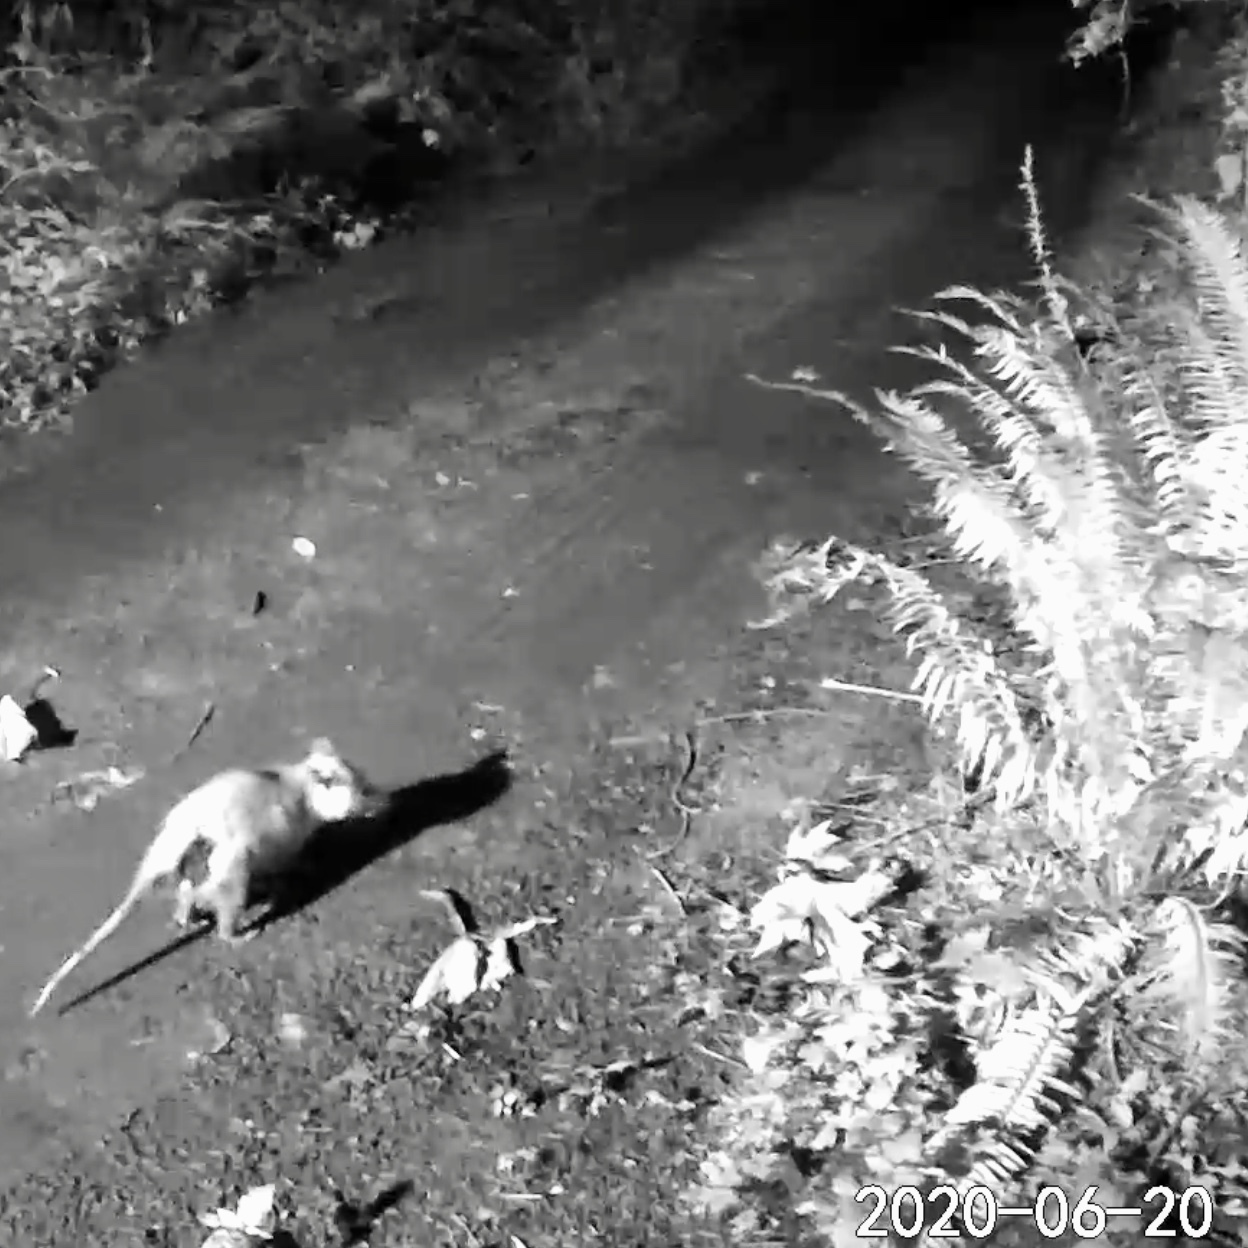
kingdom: Animalia
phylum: Chordata
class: Mammalia
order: Didelphimorphia
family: Didelphidae
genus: Didelphis
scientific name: Didelphis virginiana
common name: Virginia opossum
